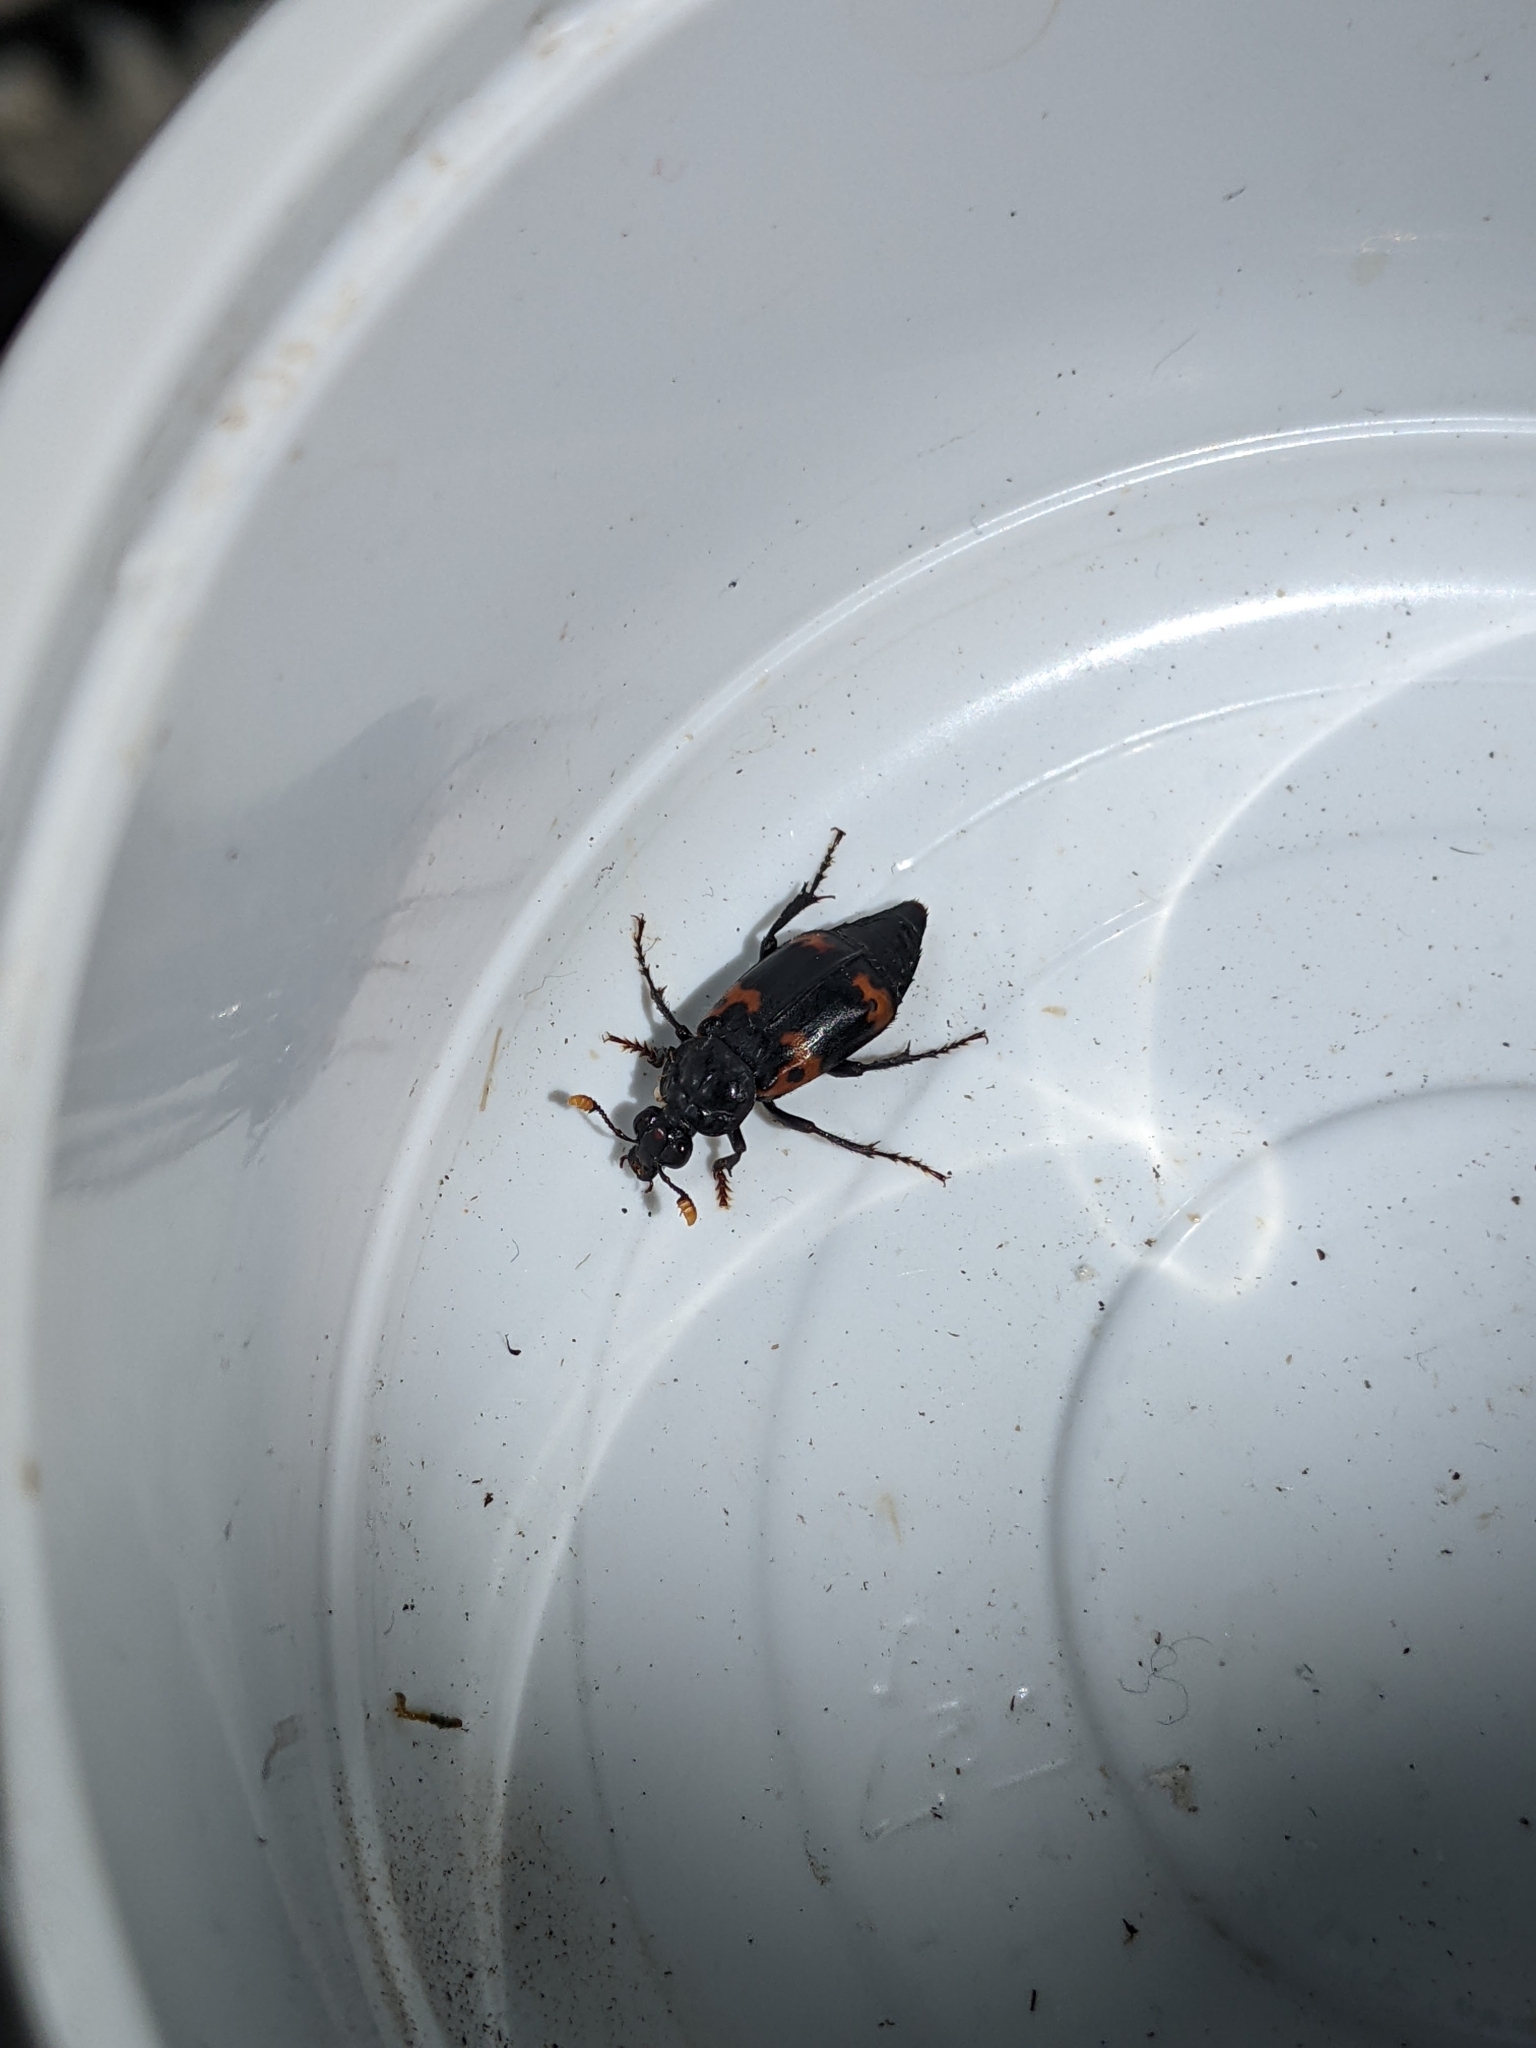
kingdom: Animalia
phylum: Arthropoda
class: Insecta
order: Coleoptera
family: Staphylinidae
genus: Nicrophorus
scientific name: Nicrophorus nepalensis
